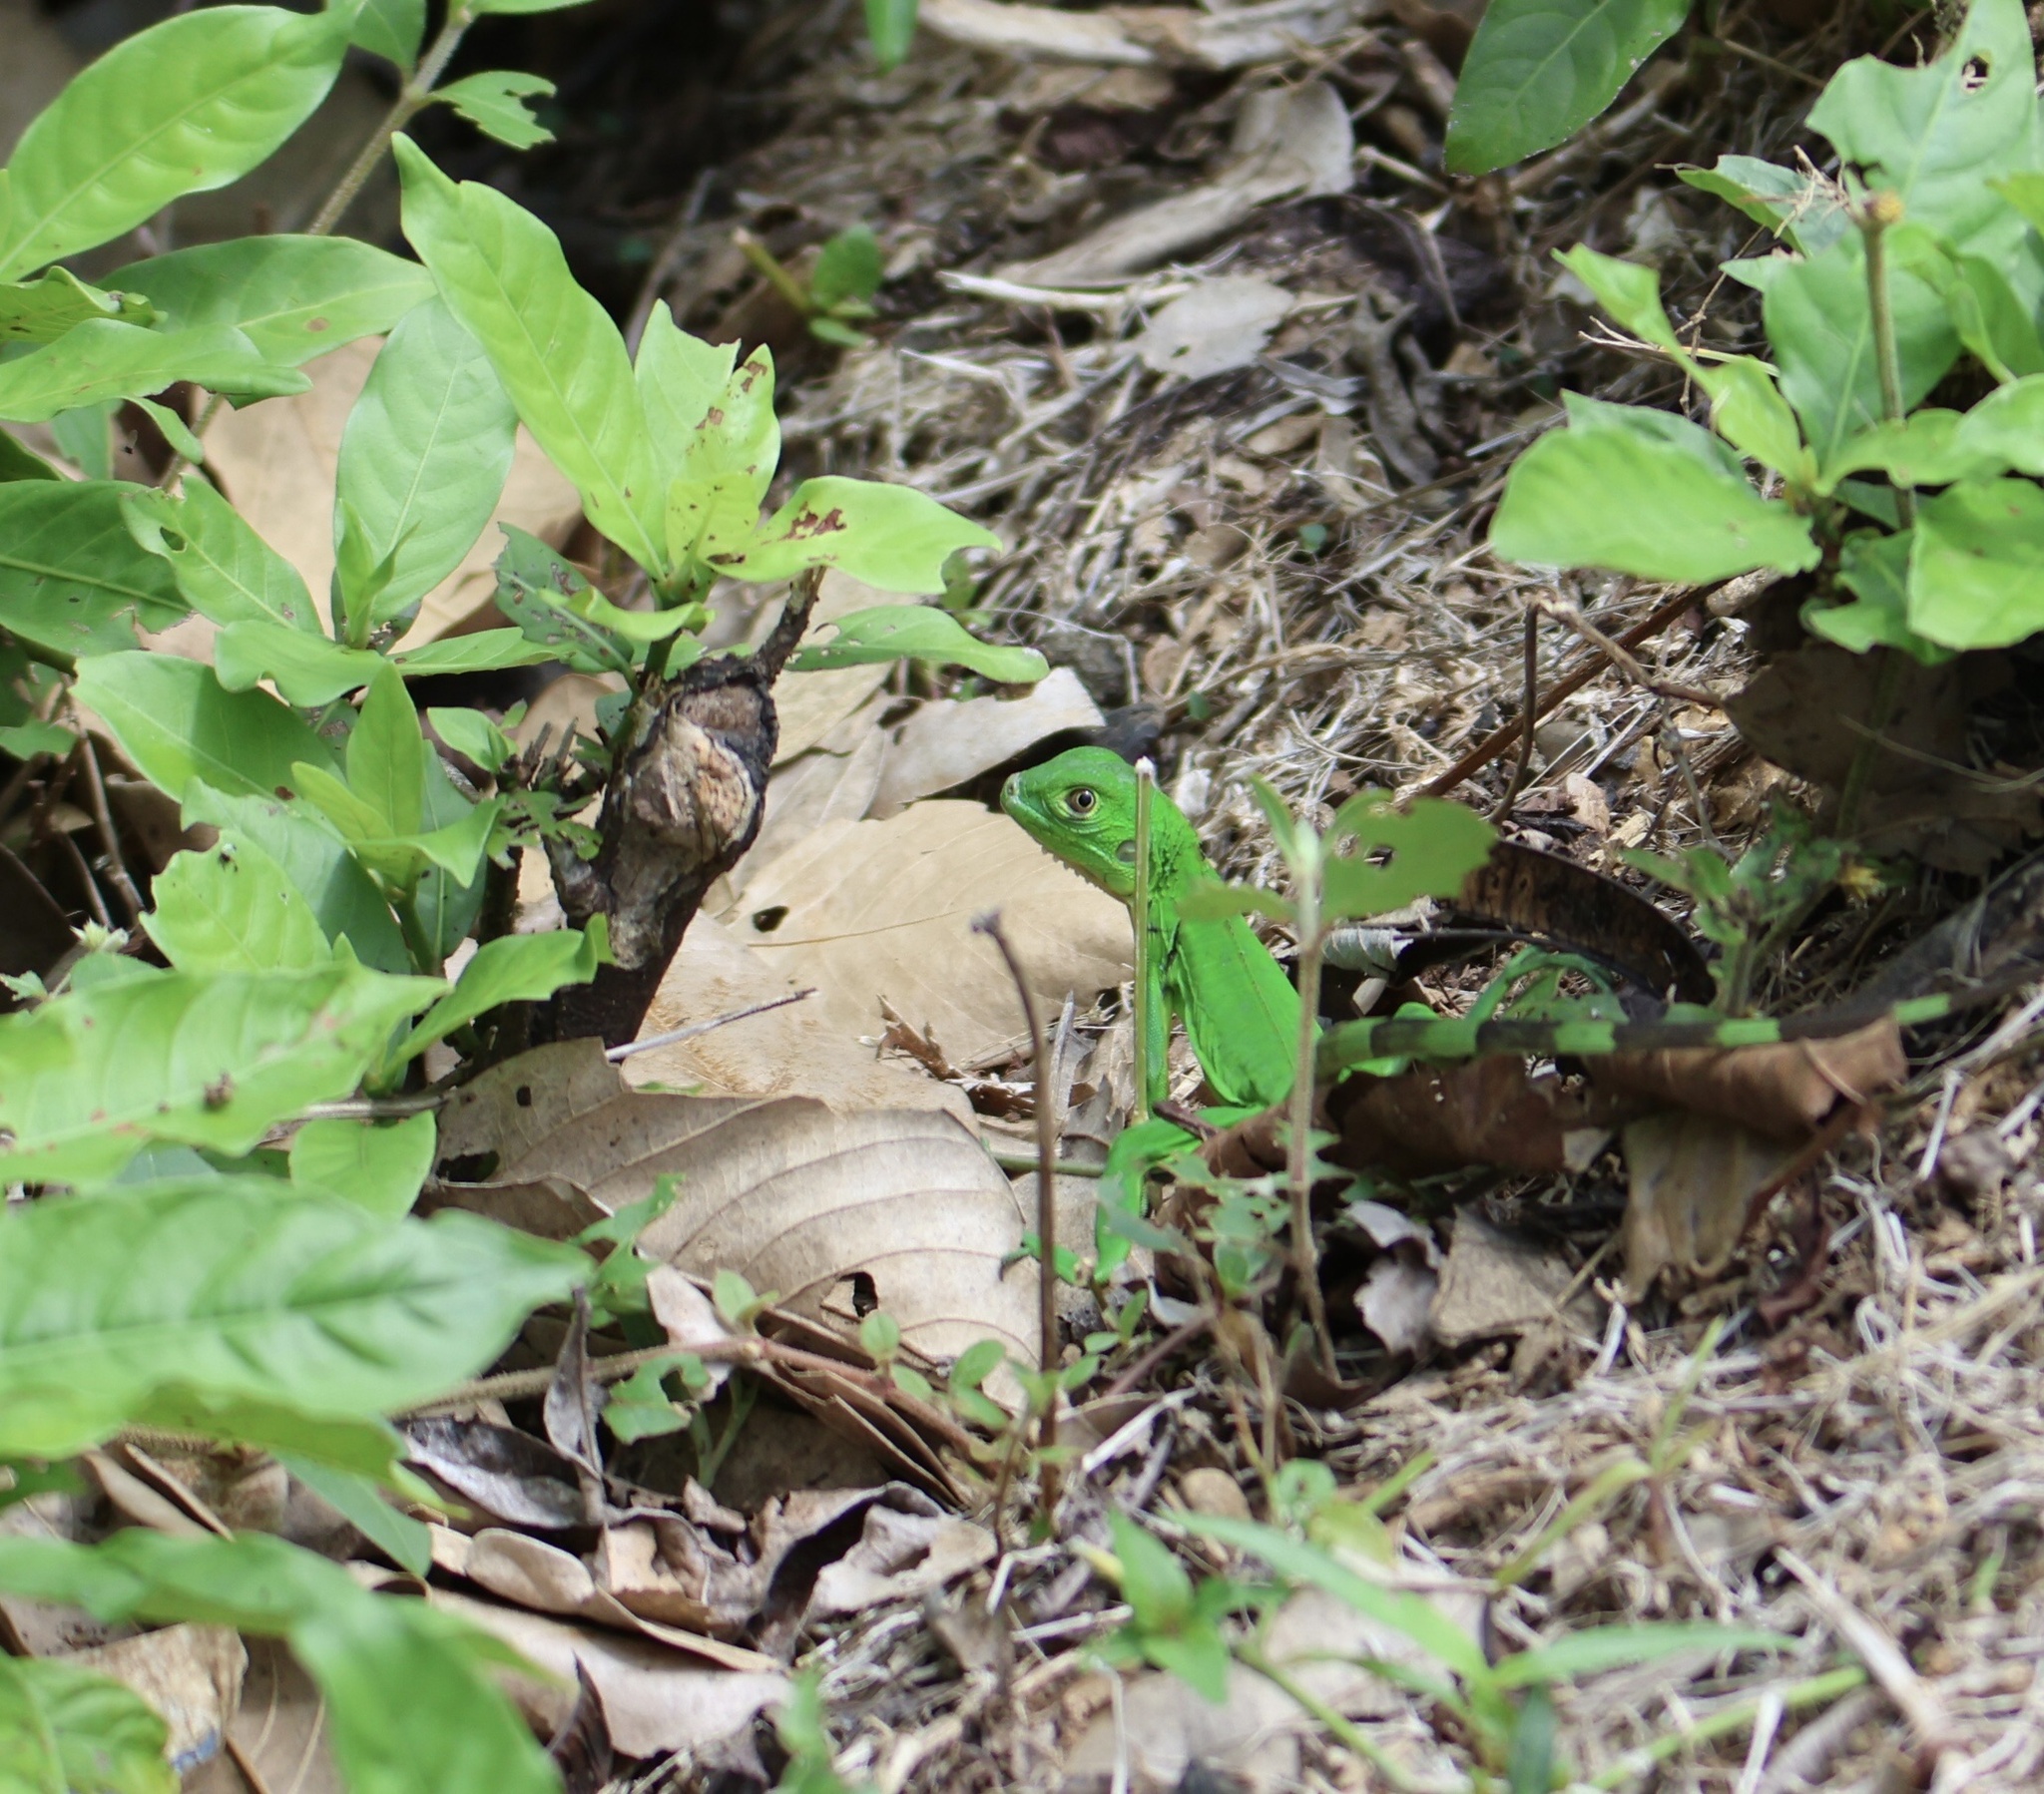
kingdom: Animalia
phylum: Chordata
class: Squamata
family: Iguanidae
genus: Iguana
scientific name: Iguana iguana
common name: Green iguana
